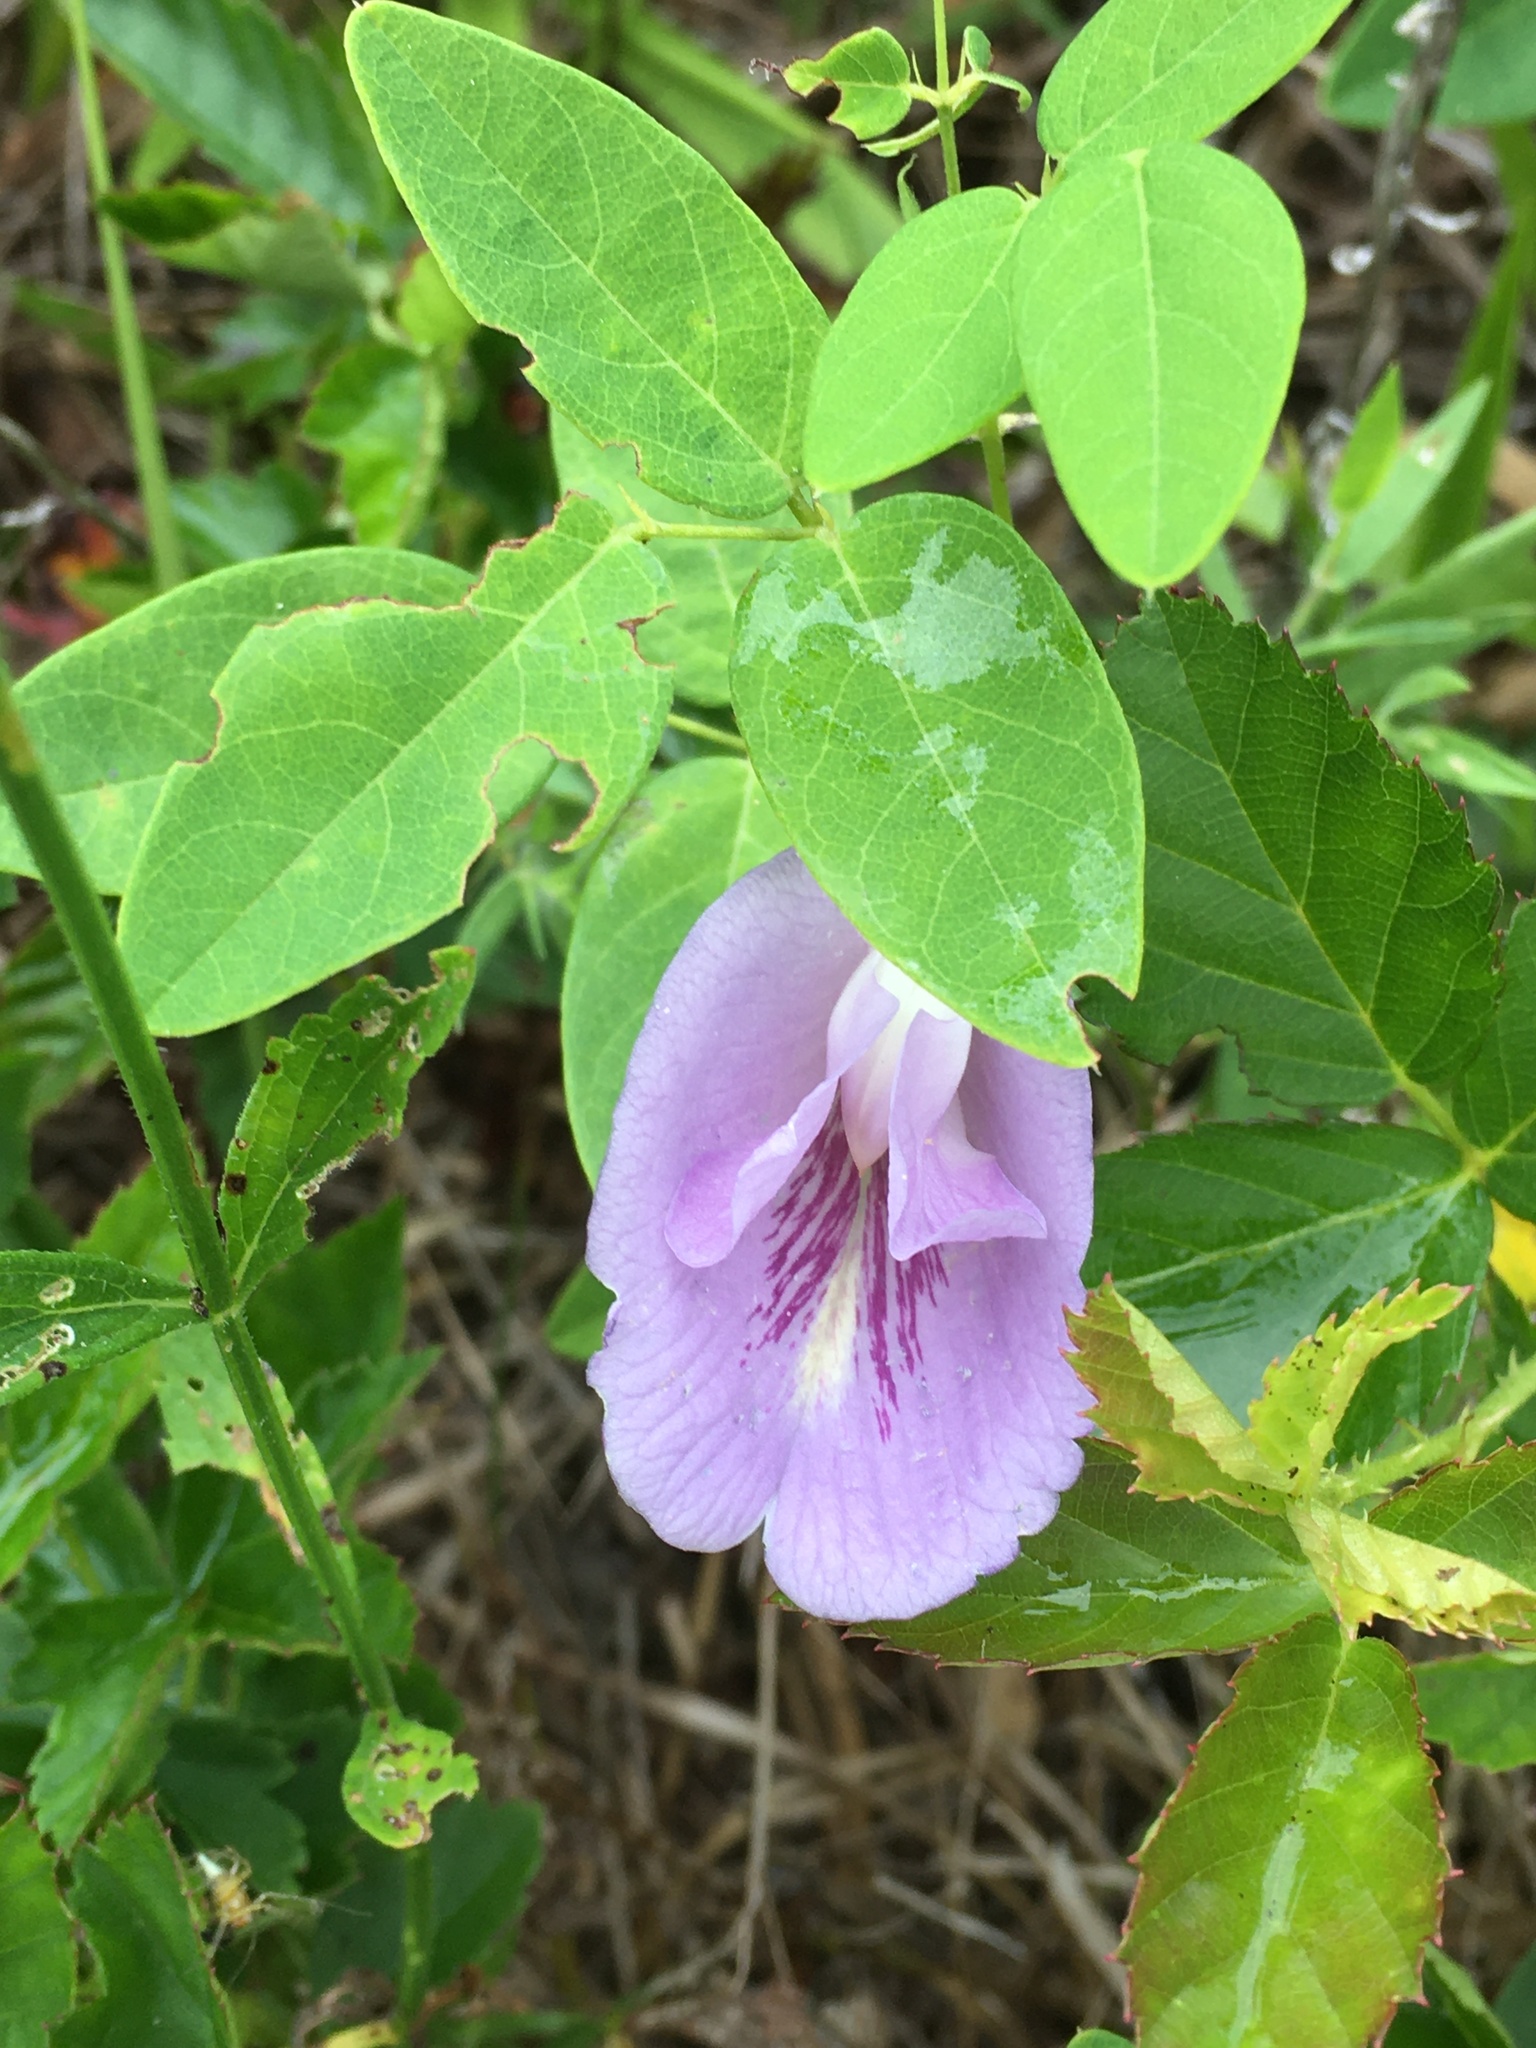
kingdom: Plantae
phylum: Tracheophyta
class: Magnoliopsida
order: Fabales
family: Fabaceae
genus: Clitoria
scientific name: Clitoria mariana
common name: Butterfly-pea
